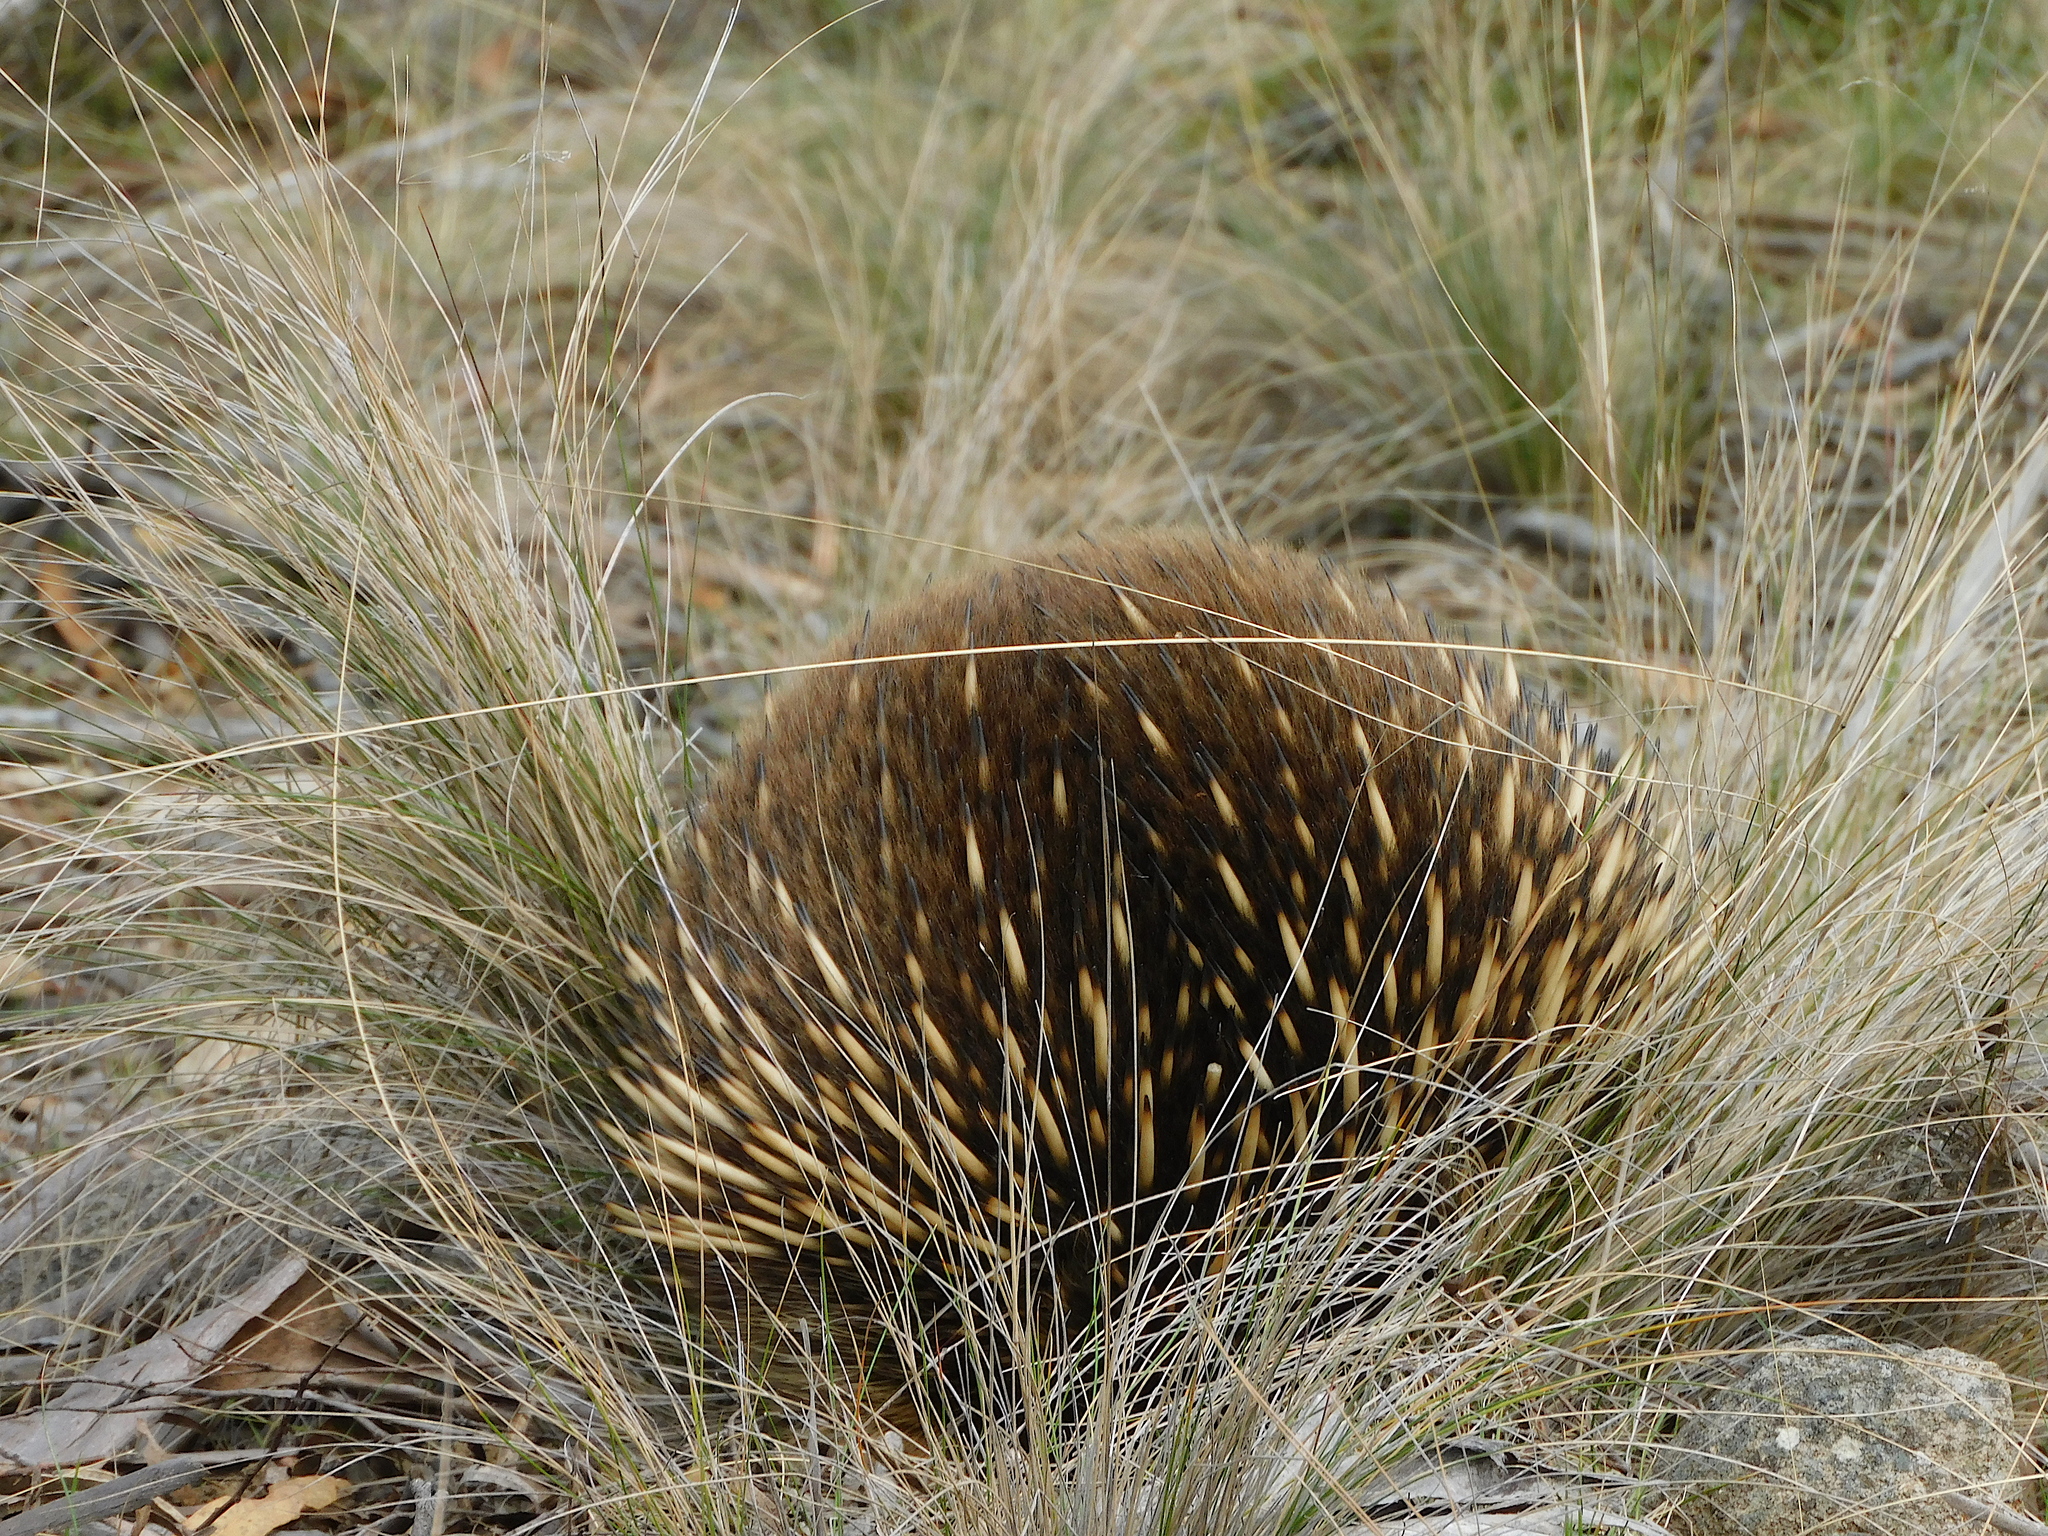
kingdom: Animalia
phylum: Chordata
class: Mammalia
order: Monotremata
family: Tachyglossidae
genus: Tachyglossus
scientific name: Tachyglossus aculeatus
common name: Short-beaked echidna
